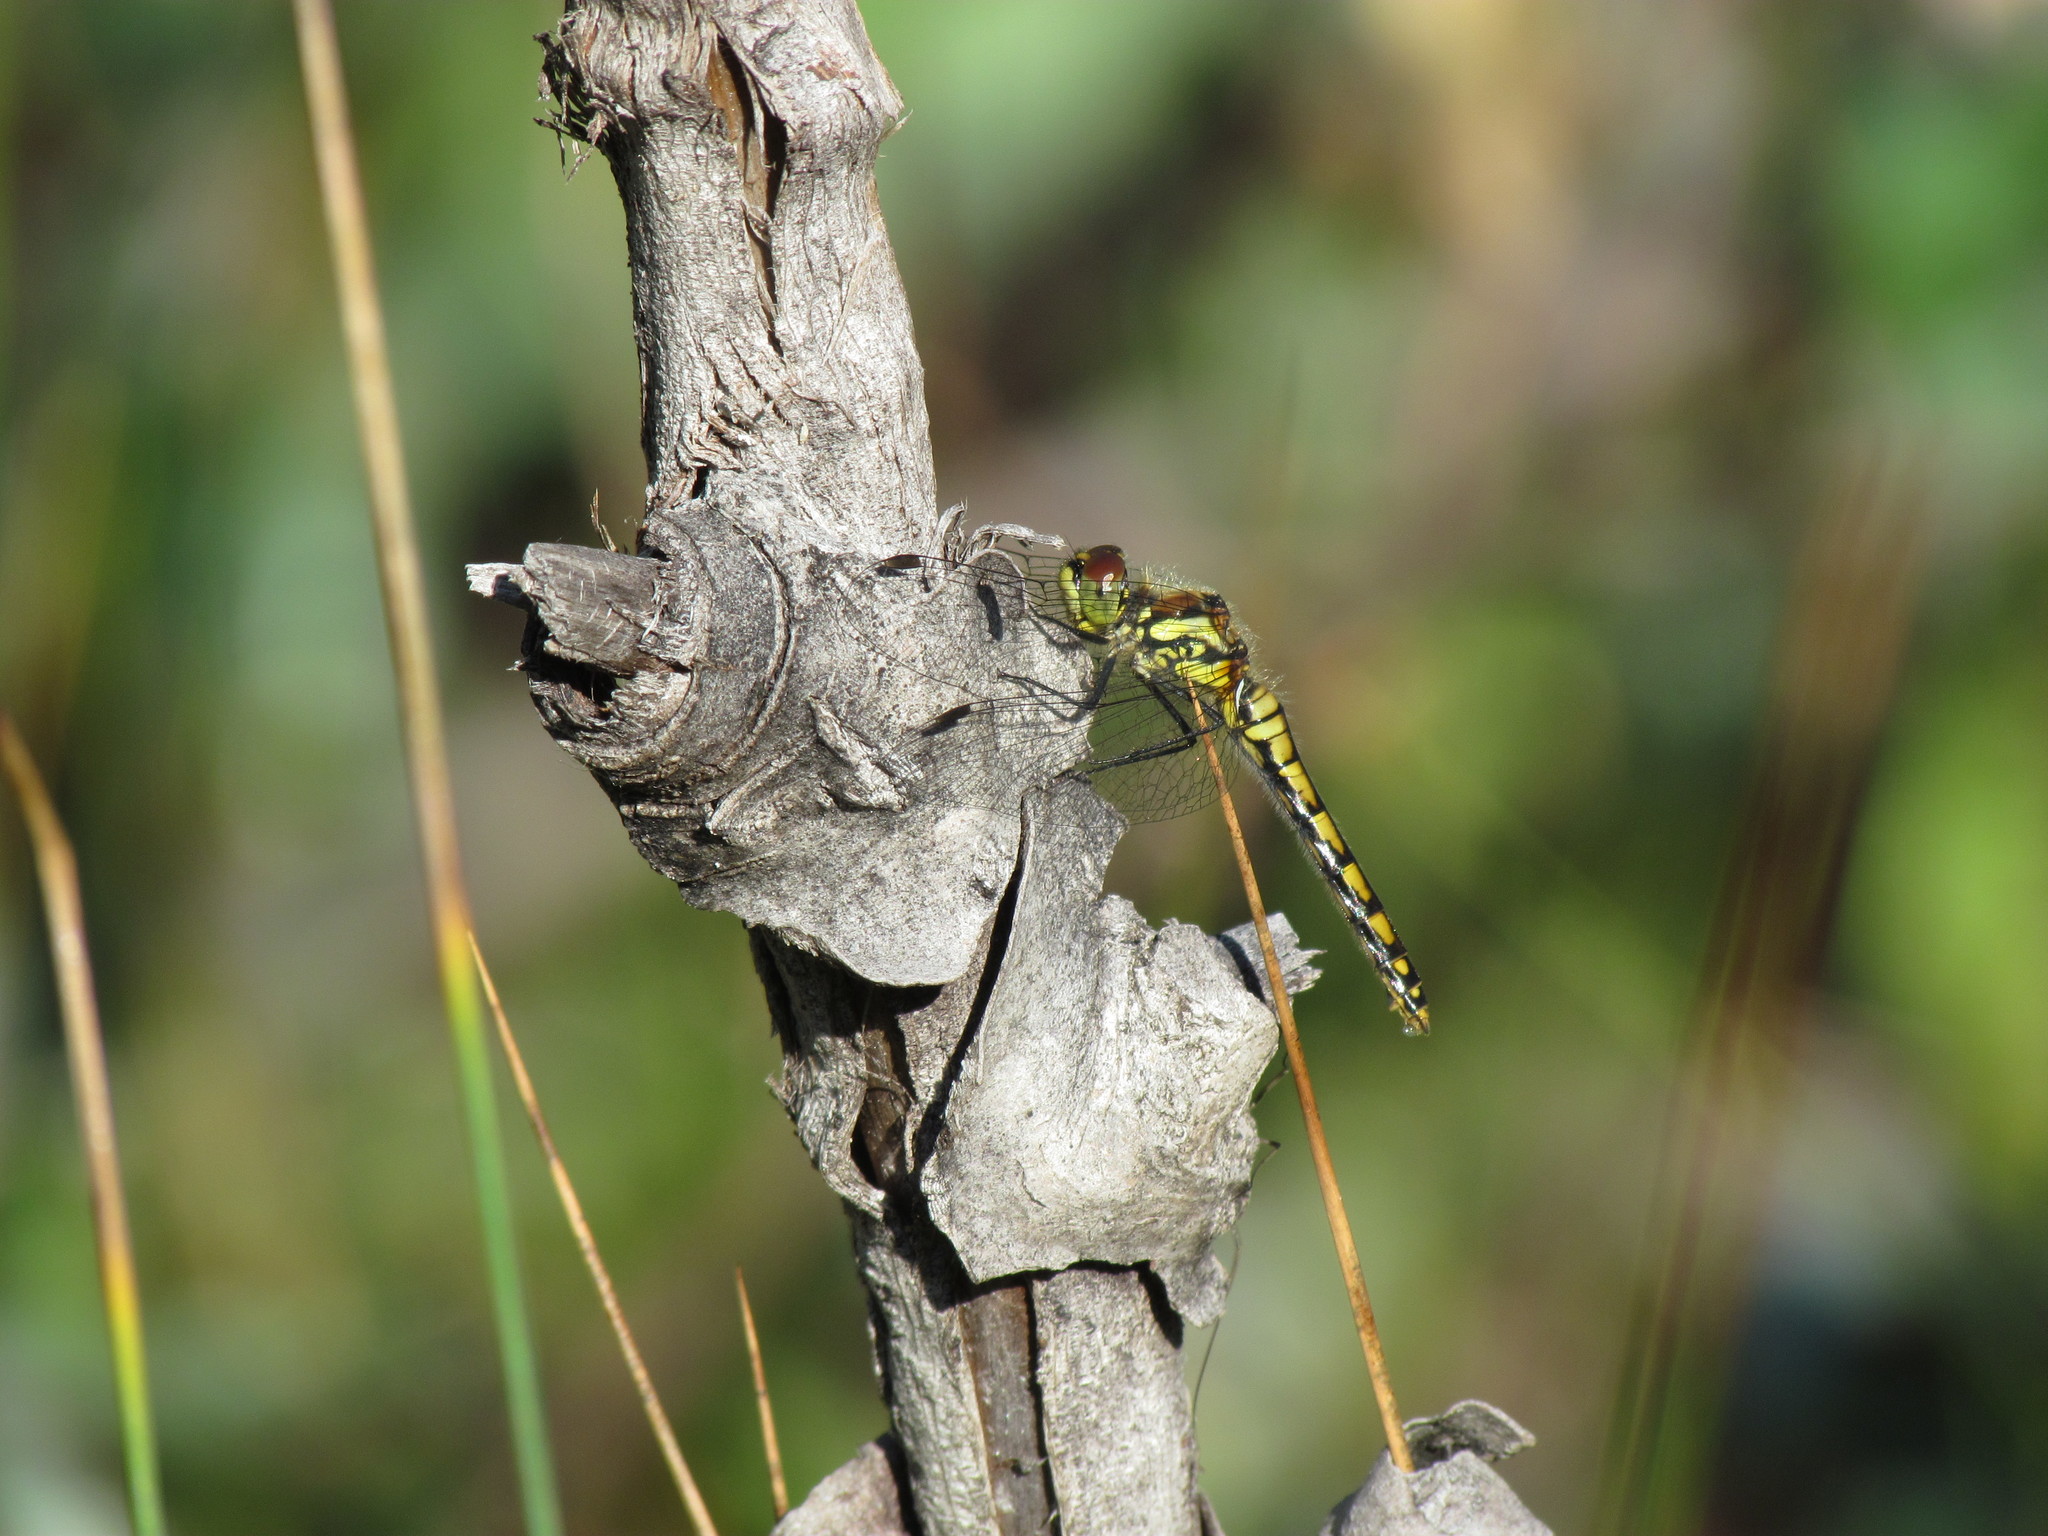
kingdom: Animalia
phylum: Arthropoda
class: Insecta
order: Odonata
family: Libellulidae
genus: Sympetrum
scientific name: Sympetrum danae
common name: Black darter
